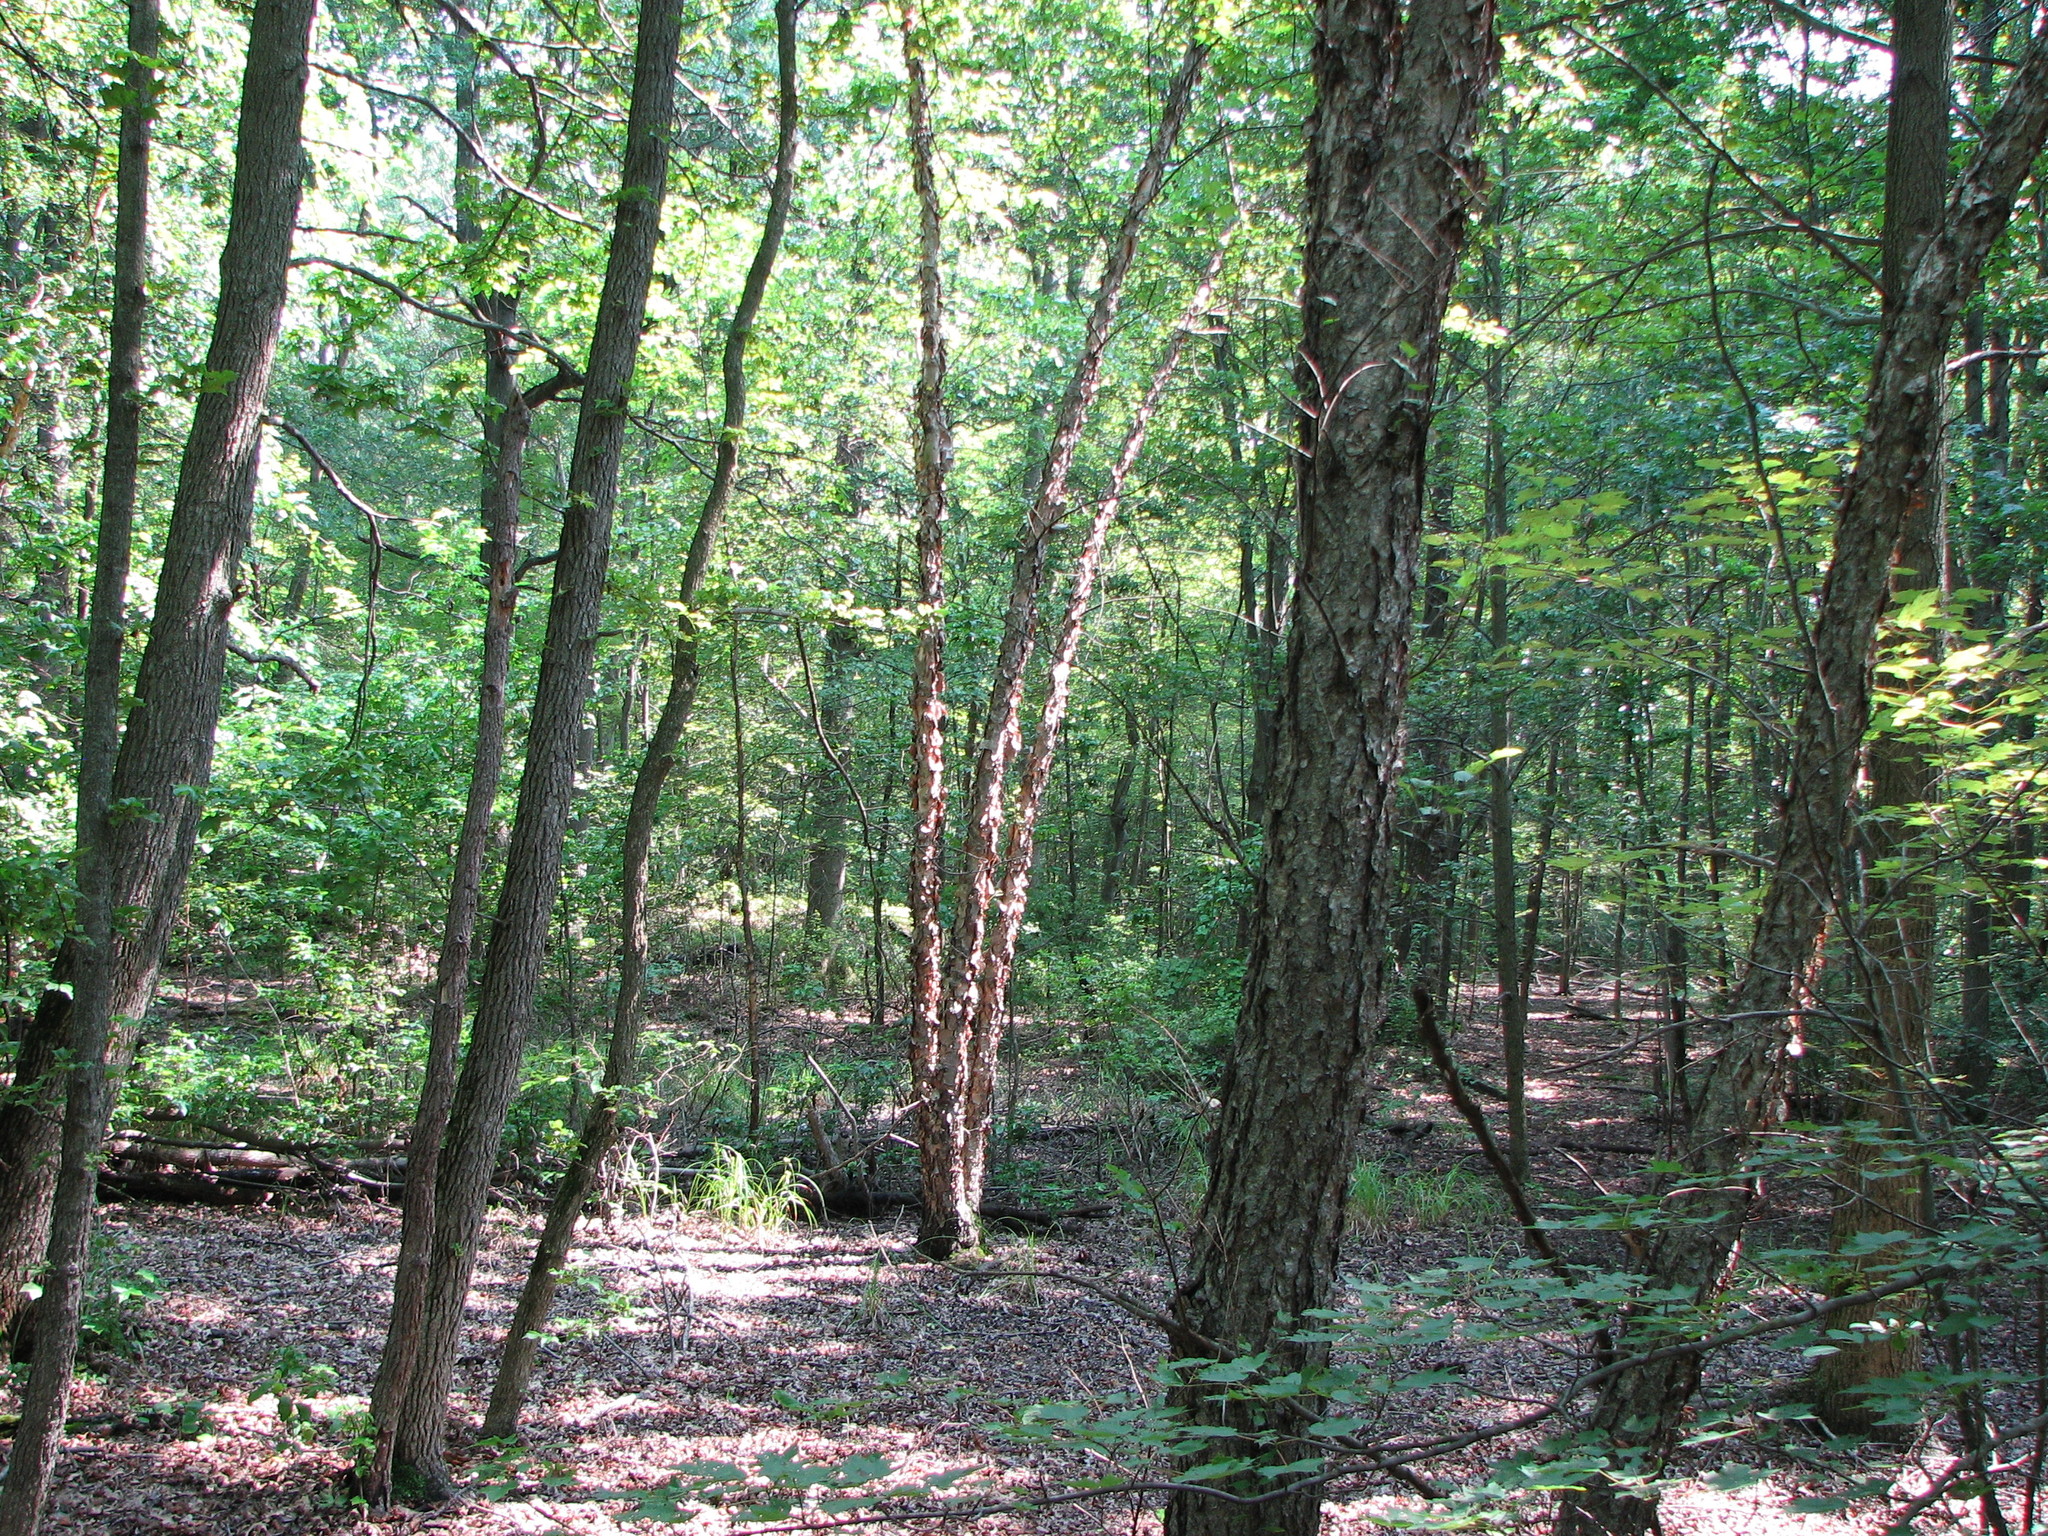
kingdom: Plantae
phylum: Tracheophyta
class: Magnoliopsida
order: Fagales
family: Betulaceae
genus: Betula
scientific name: Betula nigra
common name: Black birch
